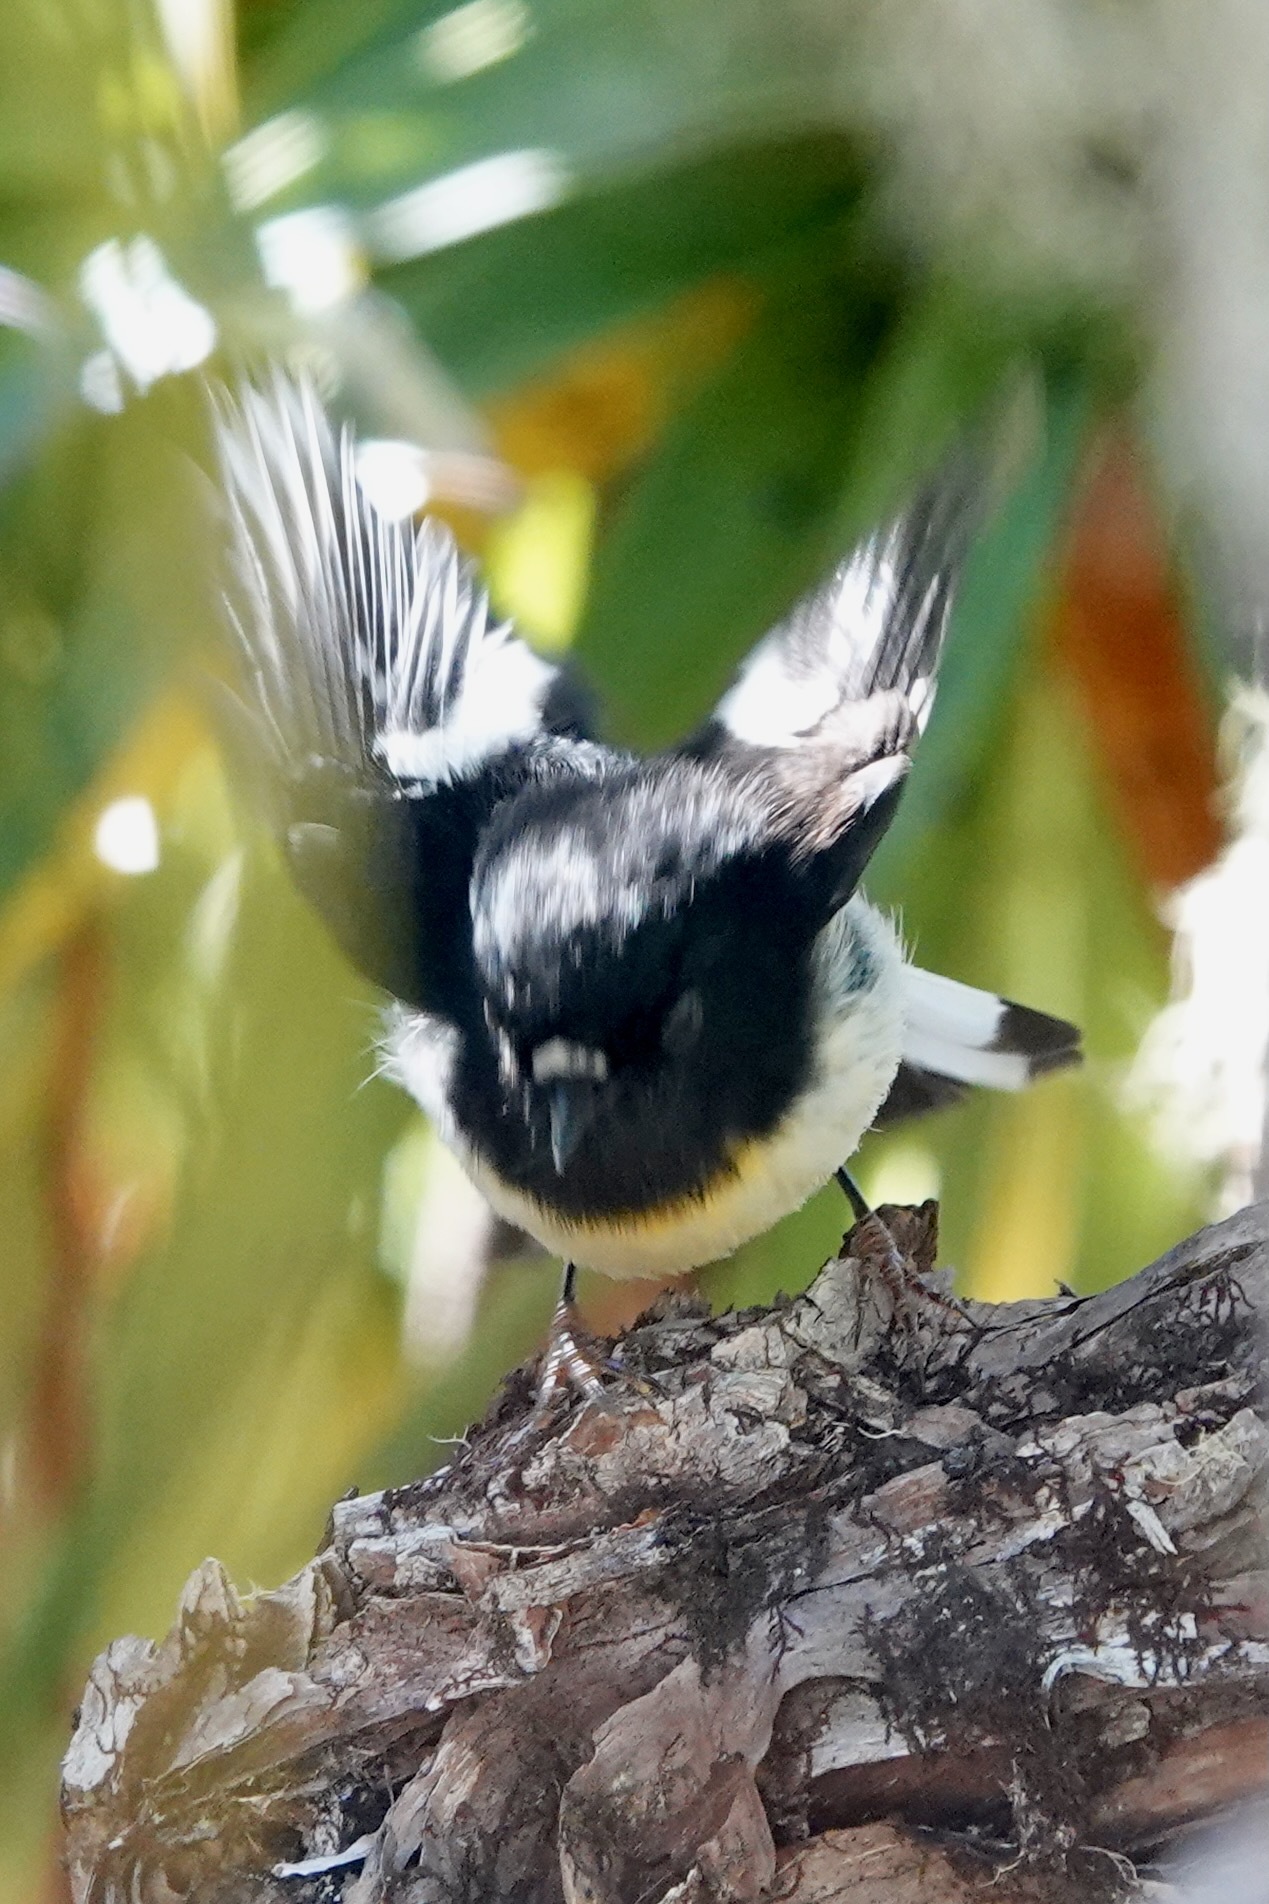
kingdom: Animalia
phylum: Chordata
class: Aves
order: Passeriformes
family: Petroicidae
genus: Petroica
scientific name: Petroica macrocephala
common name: Tomtit
